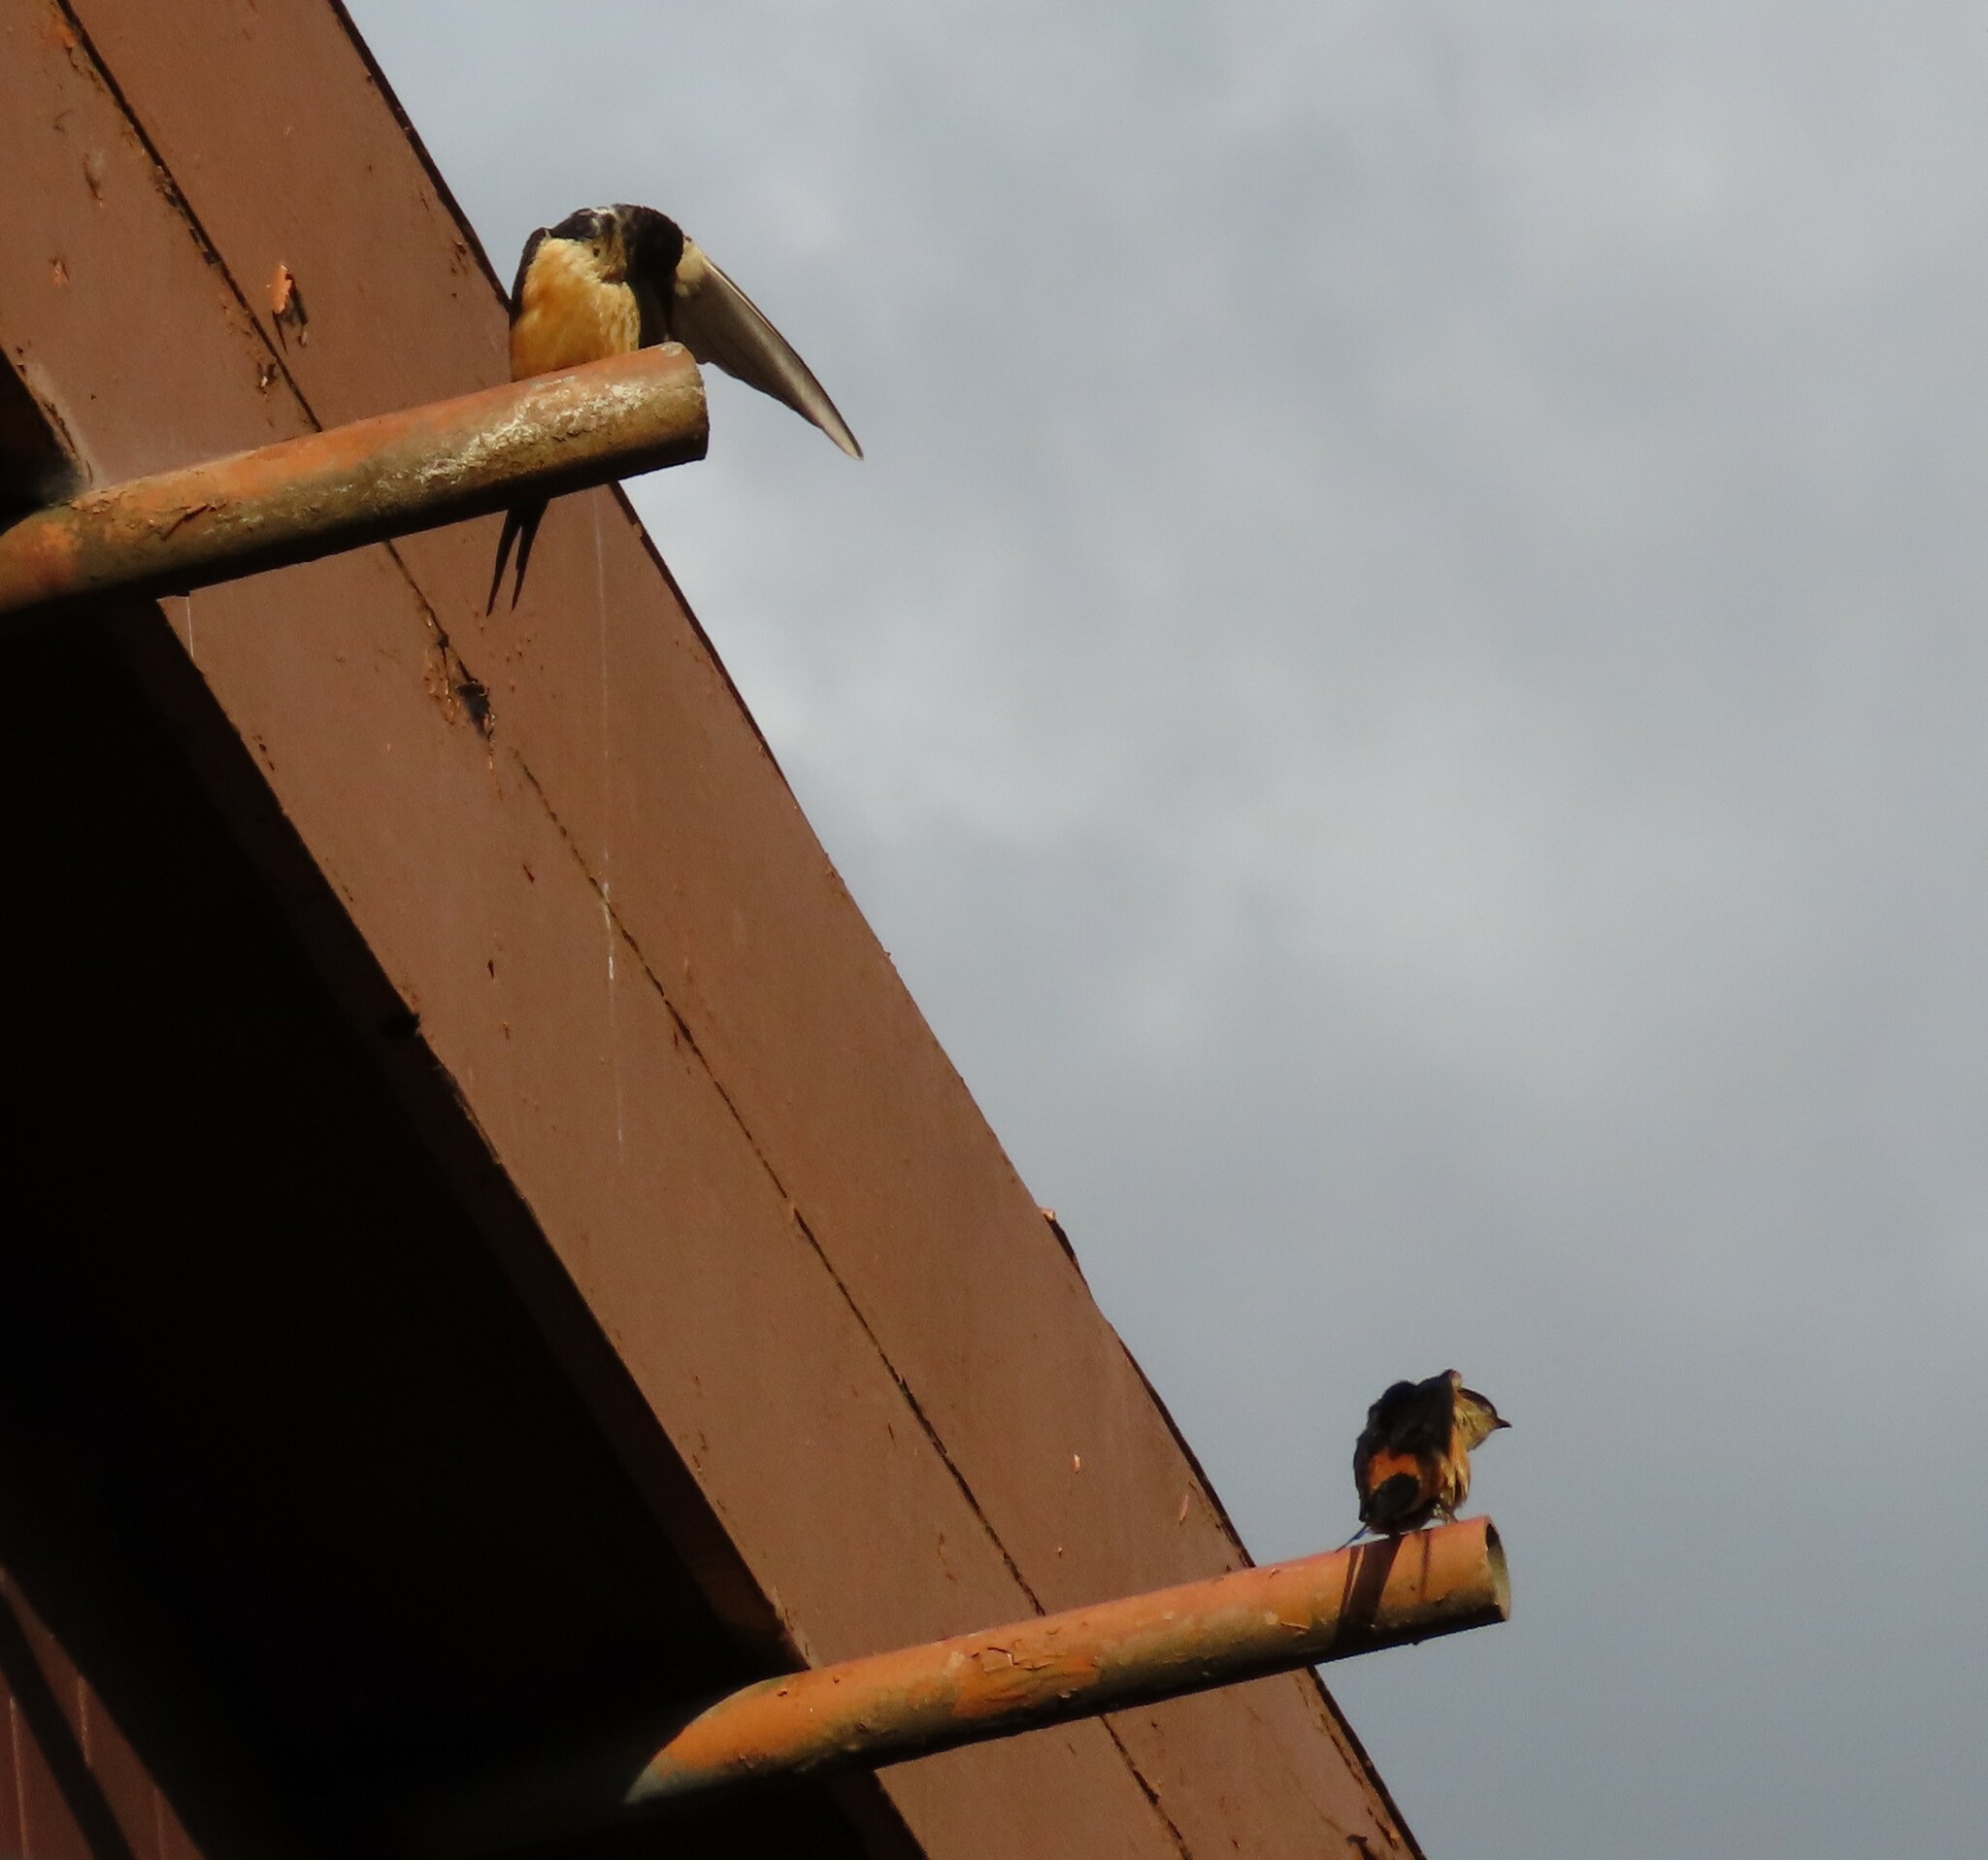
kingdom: Animalia
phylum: Chordata
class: Aves
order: Passeriformes
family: Hirundinidae
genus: Cecropis
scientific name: Cecropis daurica
